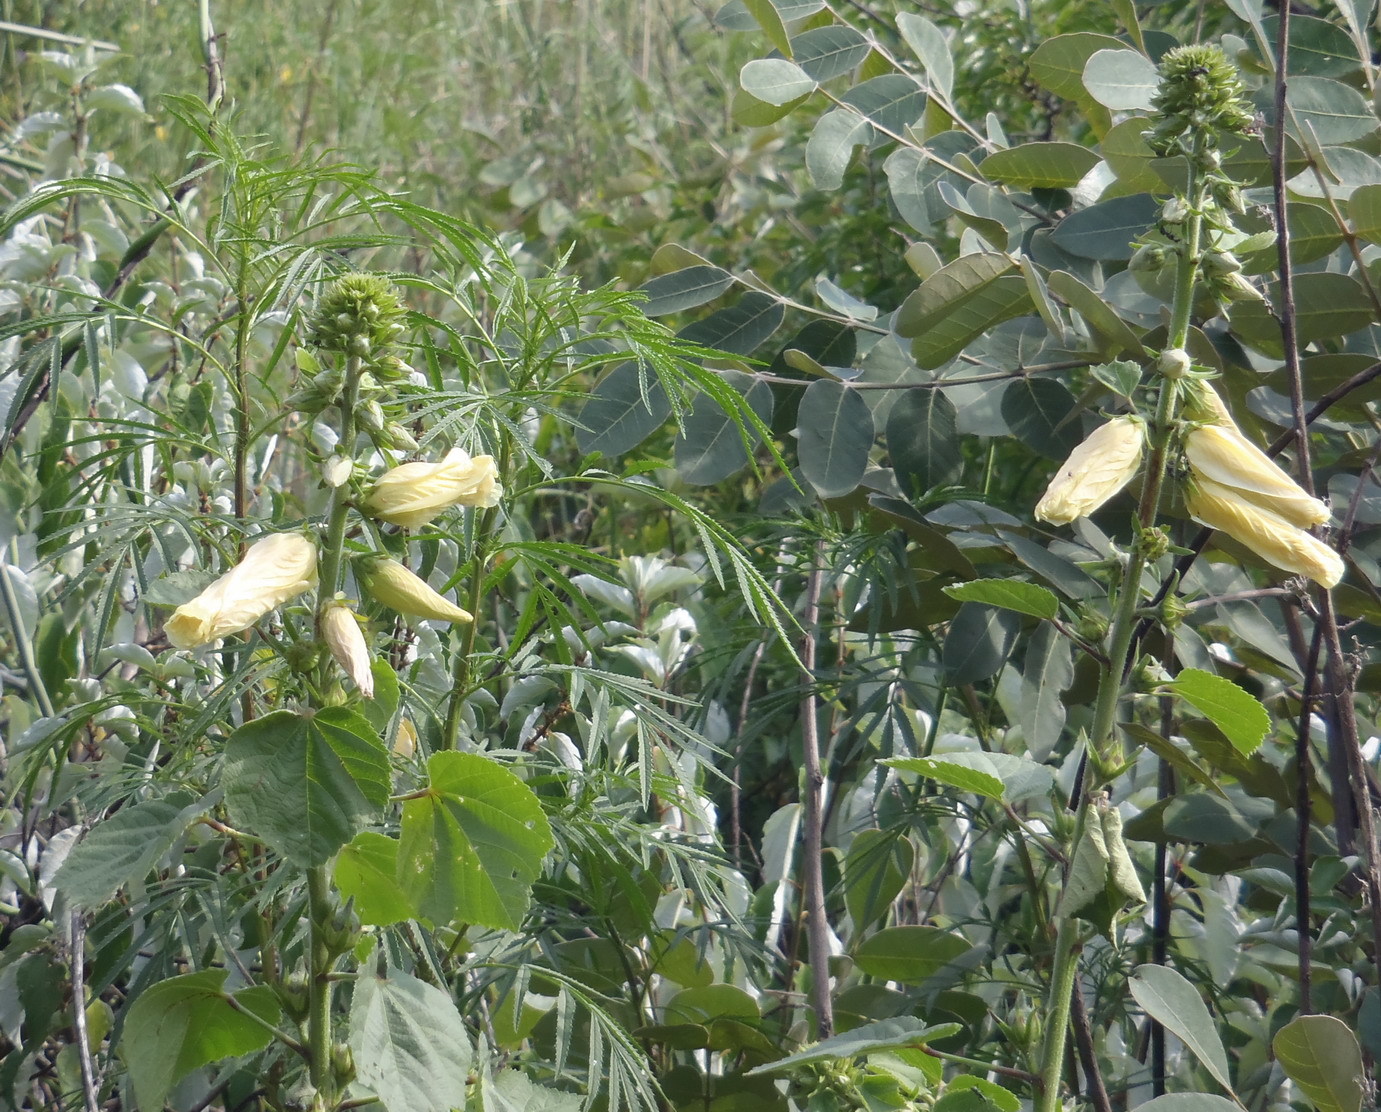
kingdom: Plantae
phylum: Tracheophyta
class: Magnoliopsida
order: Malvales
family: Malvaceae
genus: Hibiscus
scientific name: Hibiscus lunariifolius
